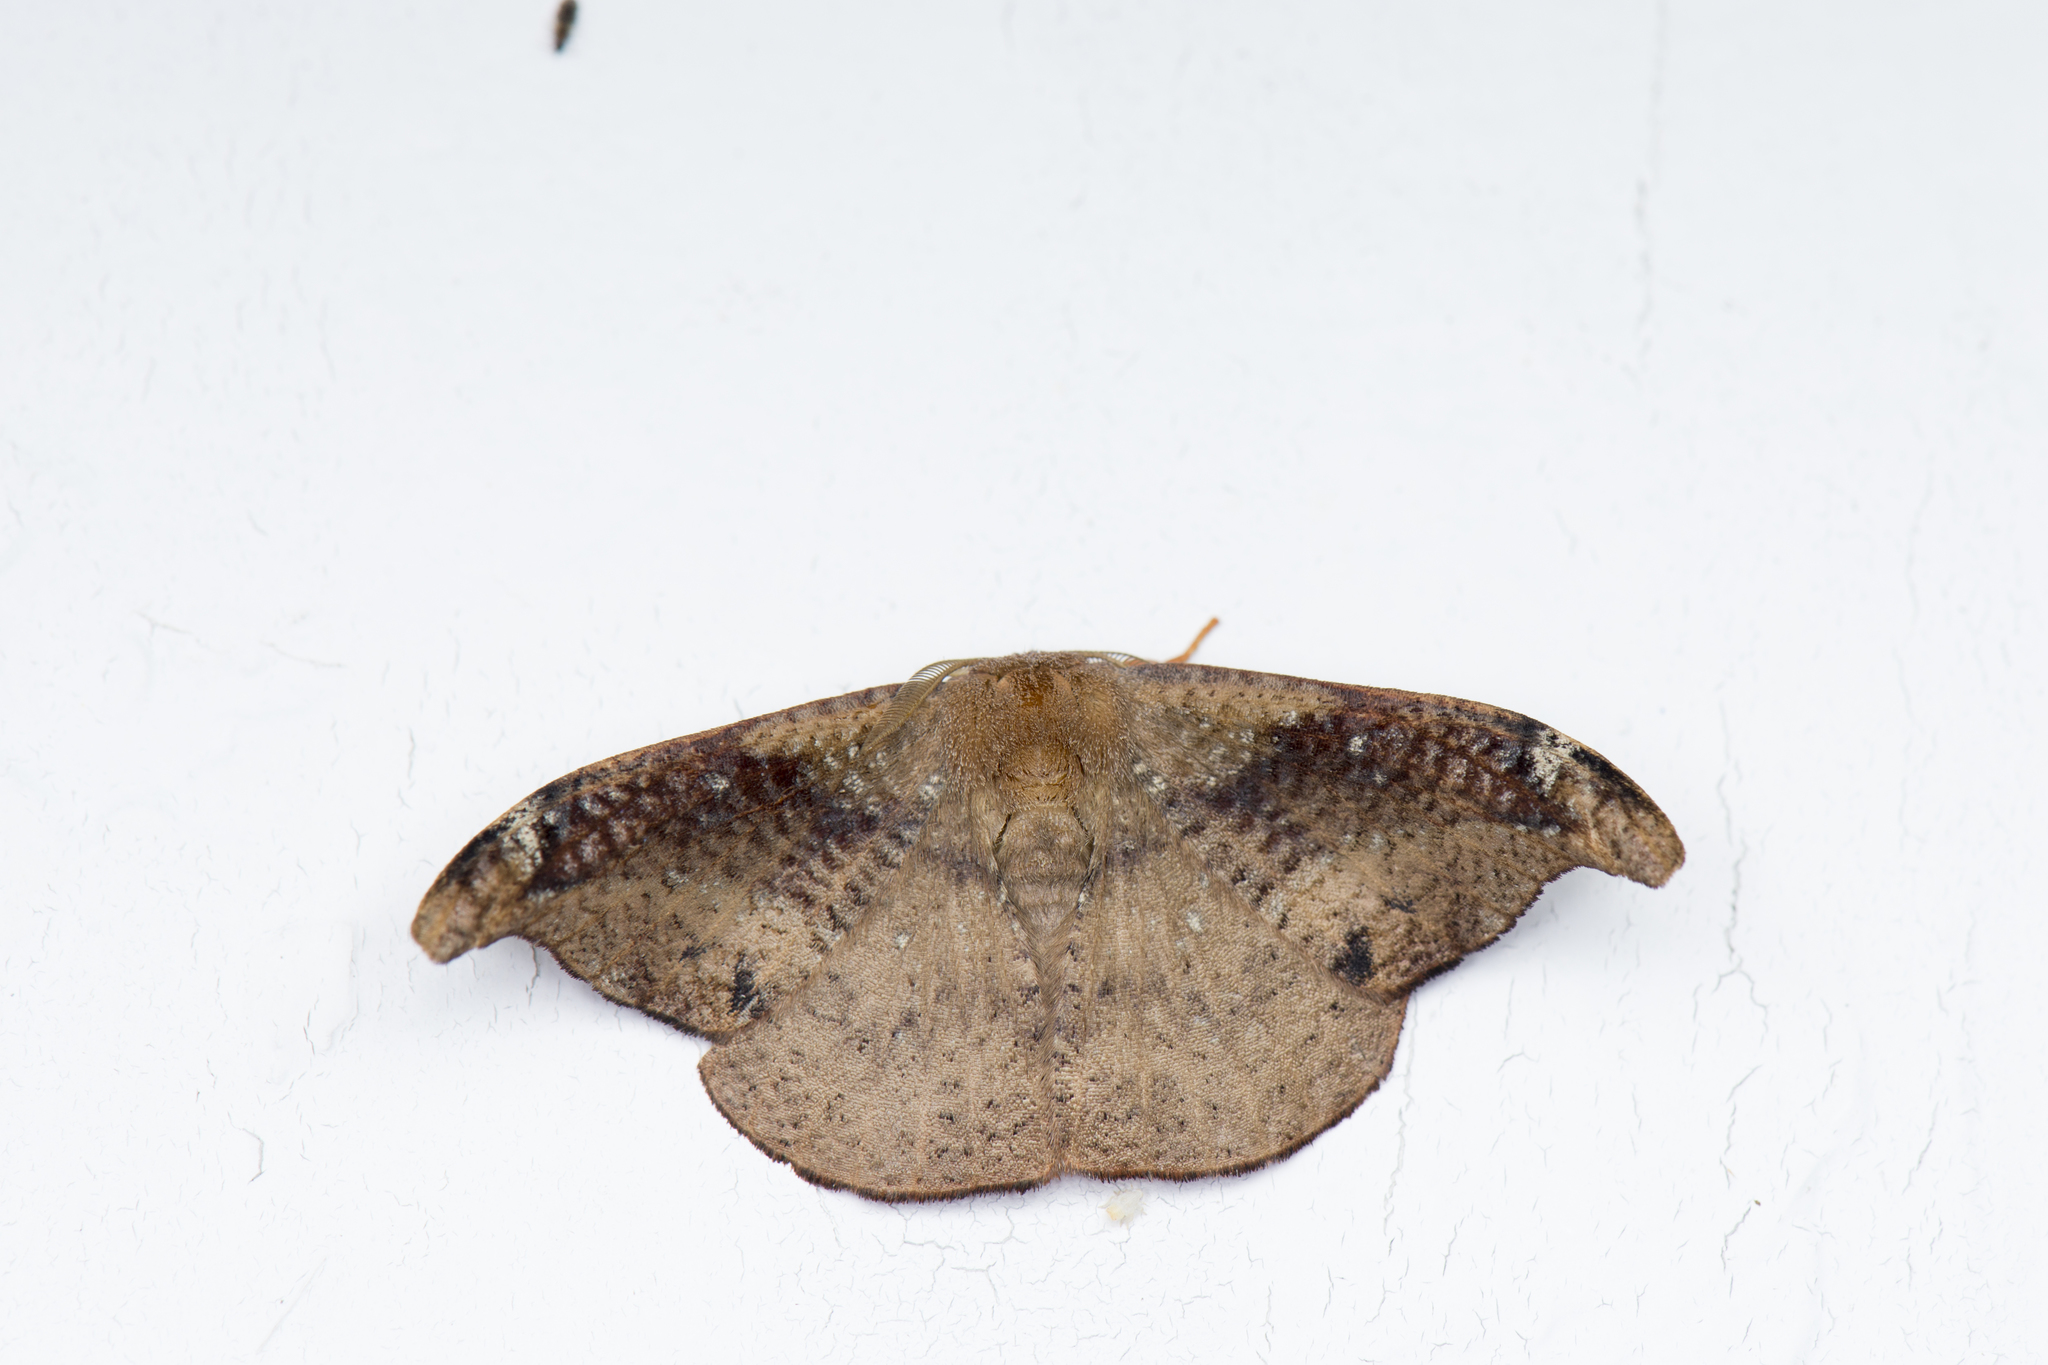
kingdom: Animalia
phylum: Arthropoda
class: Insecta
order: Lepidoptera
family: Drepanidae
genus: Oreta
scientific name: Oreta griseotincta
